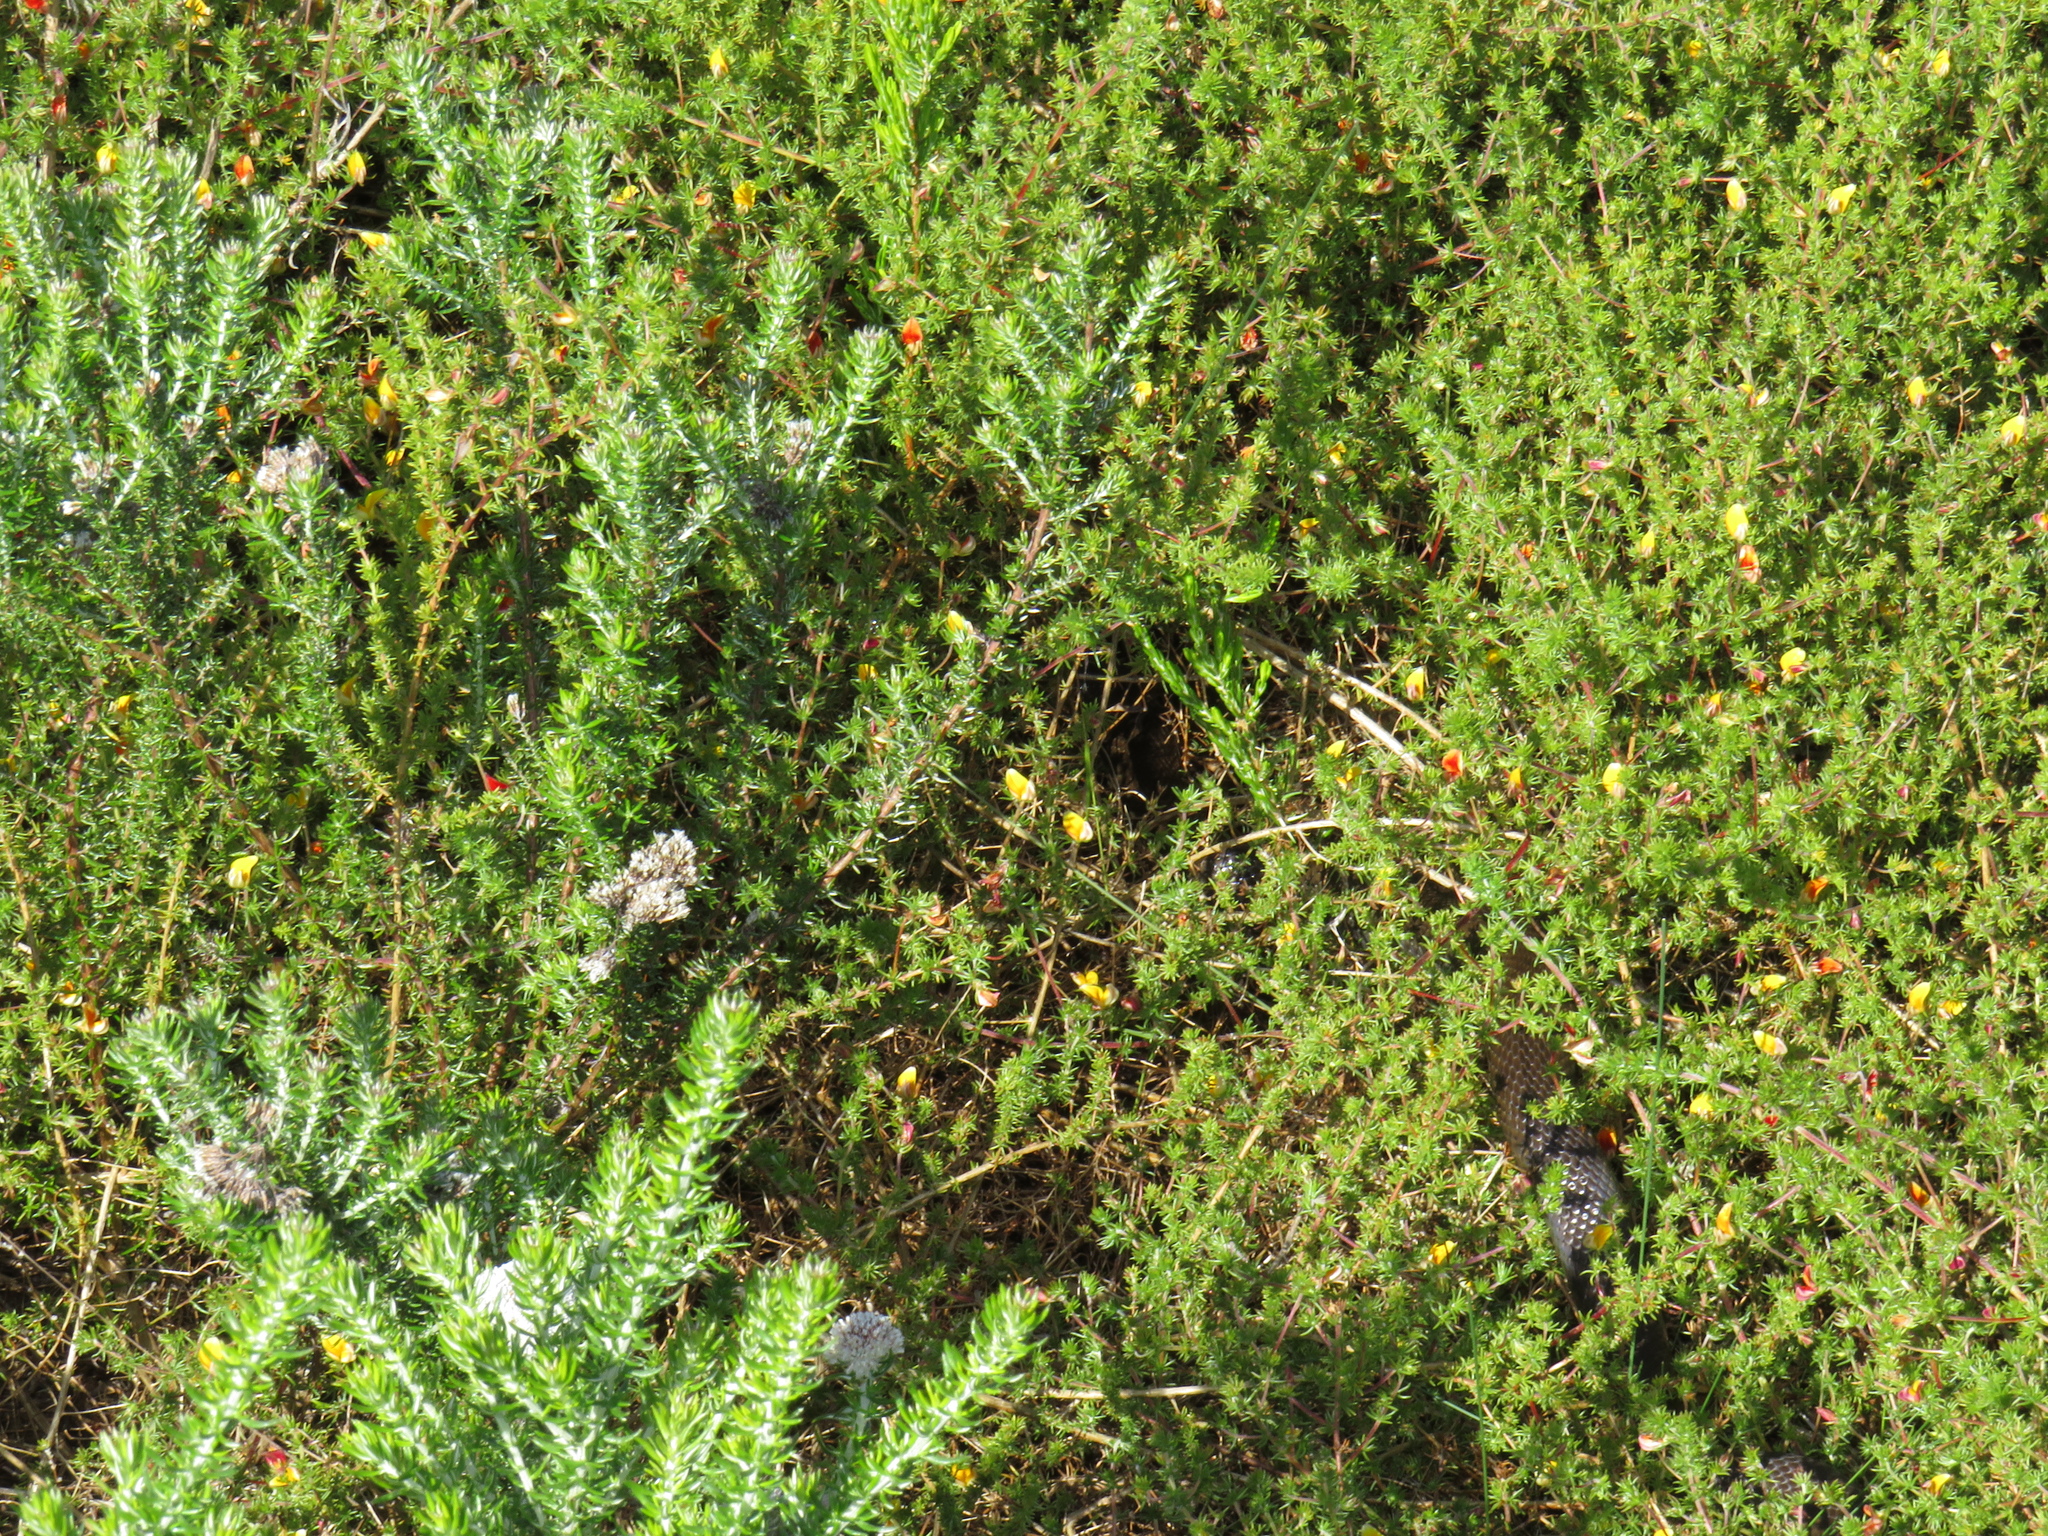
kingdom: Animalia
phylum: Chordata
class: Squamata
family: Pseudaspididae
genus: Pseudaspis
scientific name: Pseudaspis cana
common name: Mole snake
